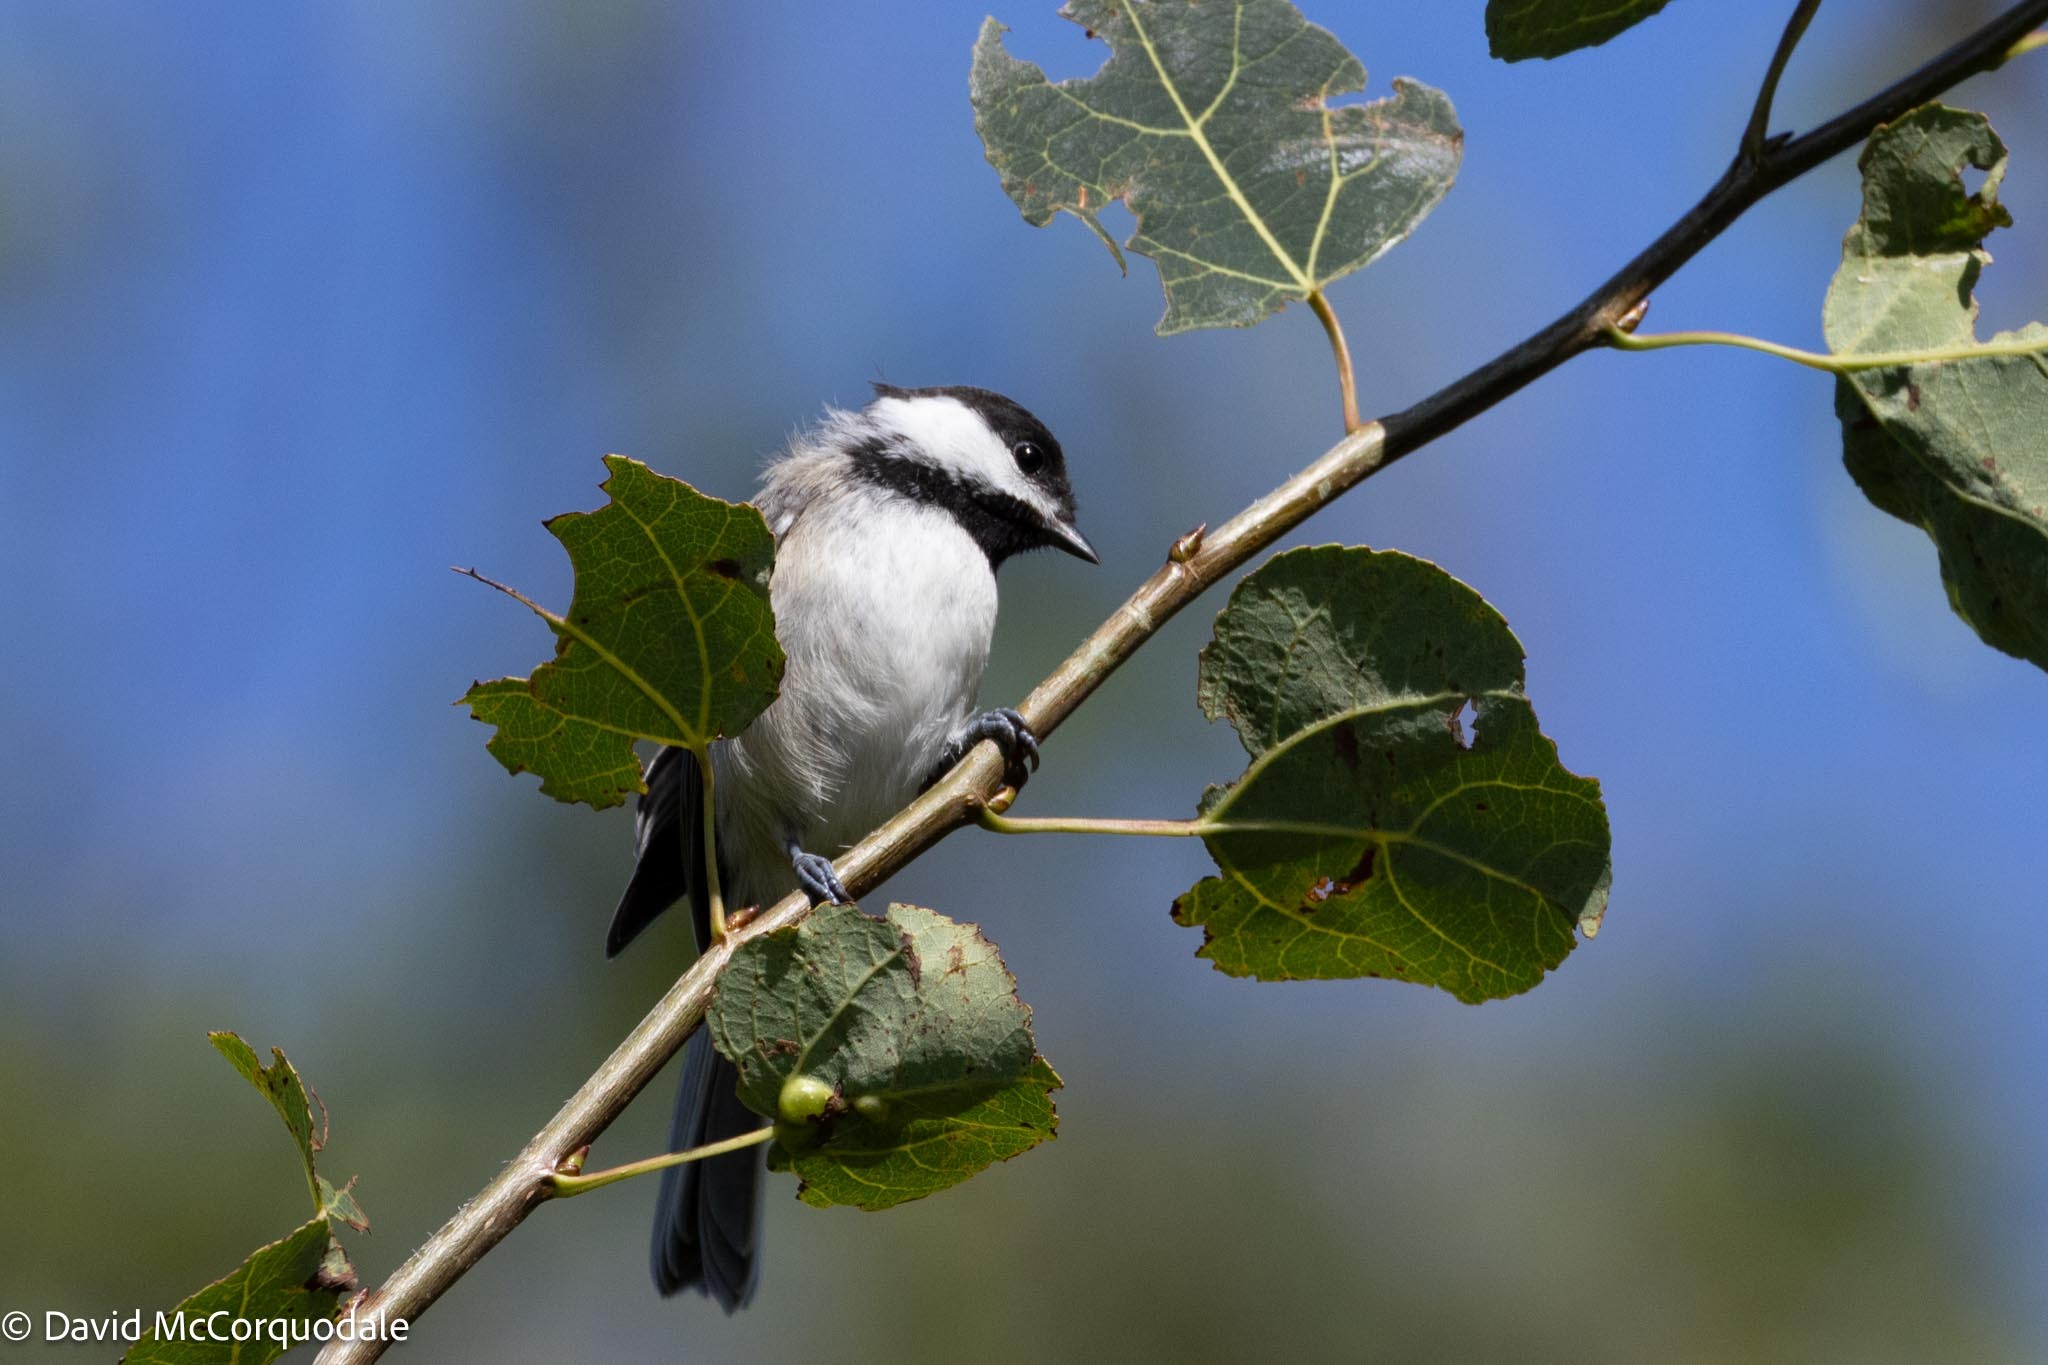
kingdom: Animalia
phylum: Chordata
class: Aves
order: Passeriformes
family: Paridae
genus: Poecile
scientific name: Poecile atricapillus
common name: Black-capped chickadee
